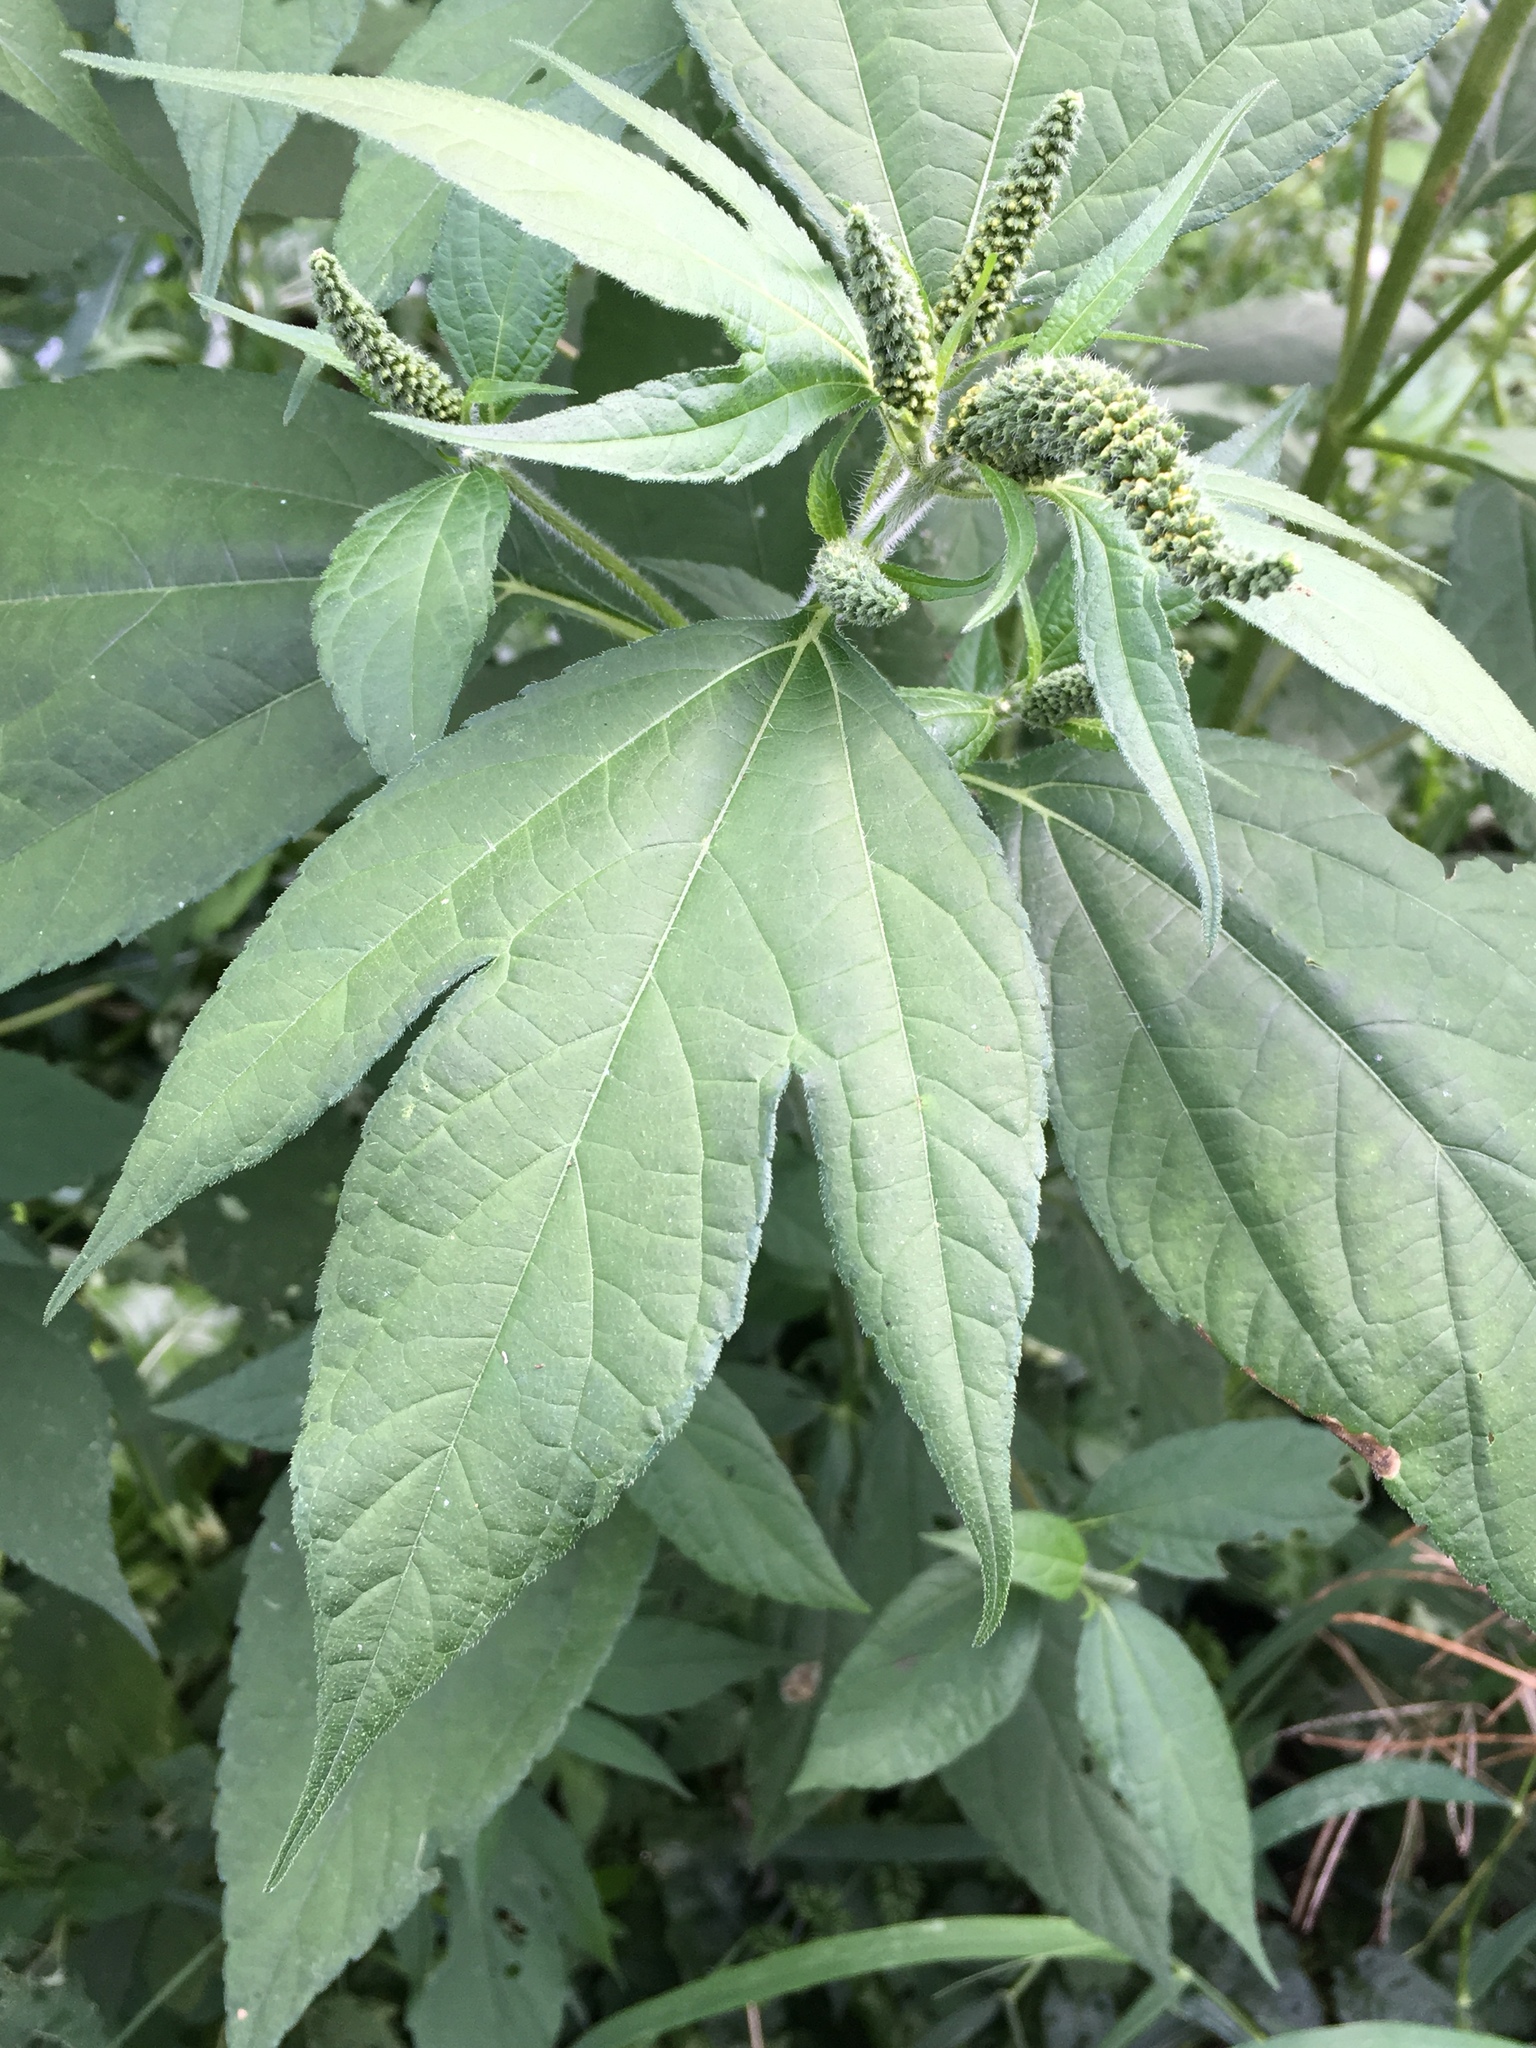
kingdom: Plantae
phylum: Tracheophyta
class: Magnoliopsida
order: Asterales
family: Asteraceae
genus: Ambrosia
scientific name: Ambrosia trifida
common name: Giant ragweed
